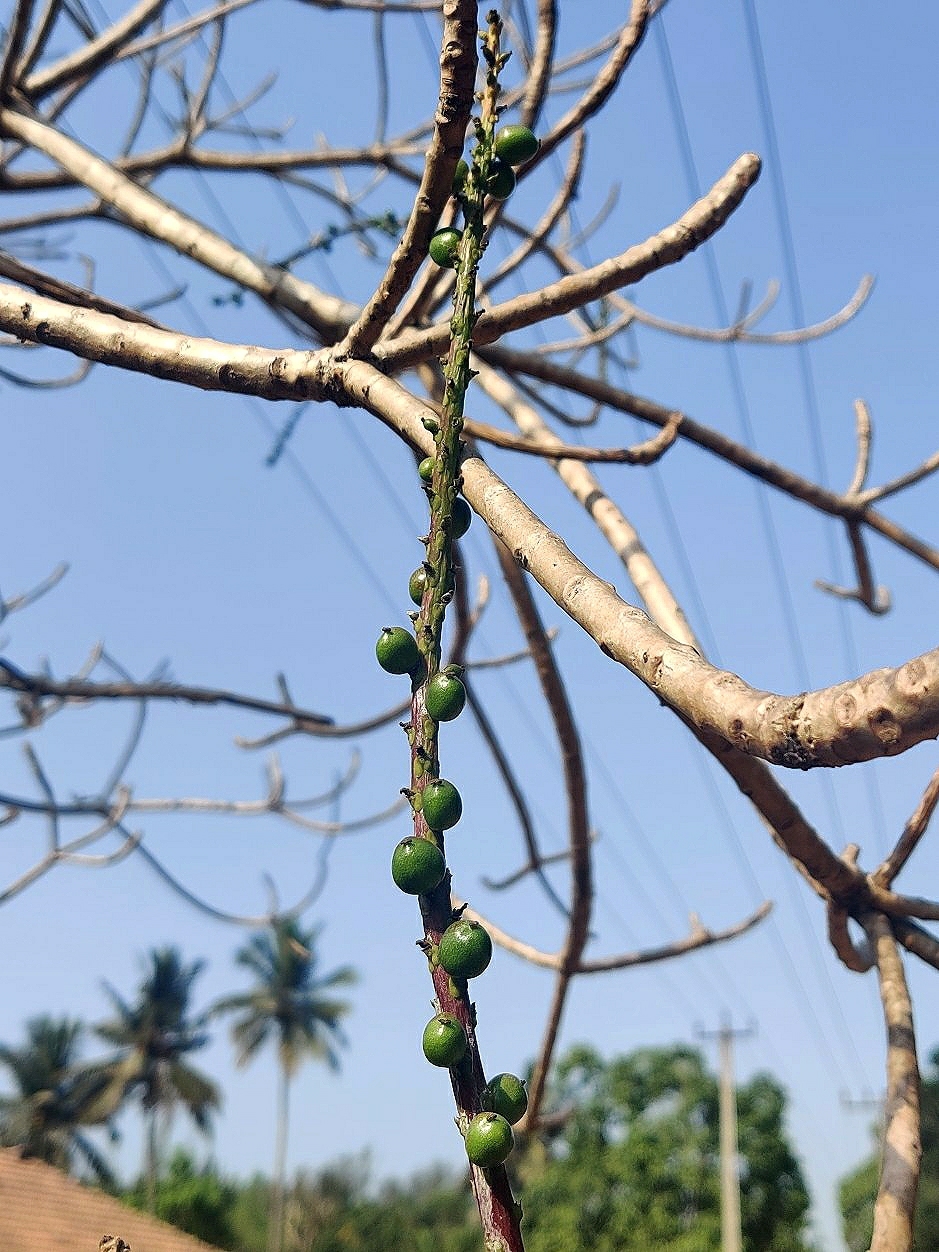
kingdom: Plantae
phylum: Tracheophyta
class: Magnoliopsida
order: Malpighiales
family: Euphorbiaceae
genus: Falconeria
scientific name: Falconeria insignis
